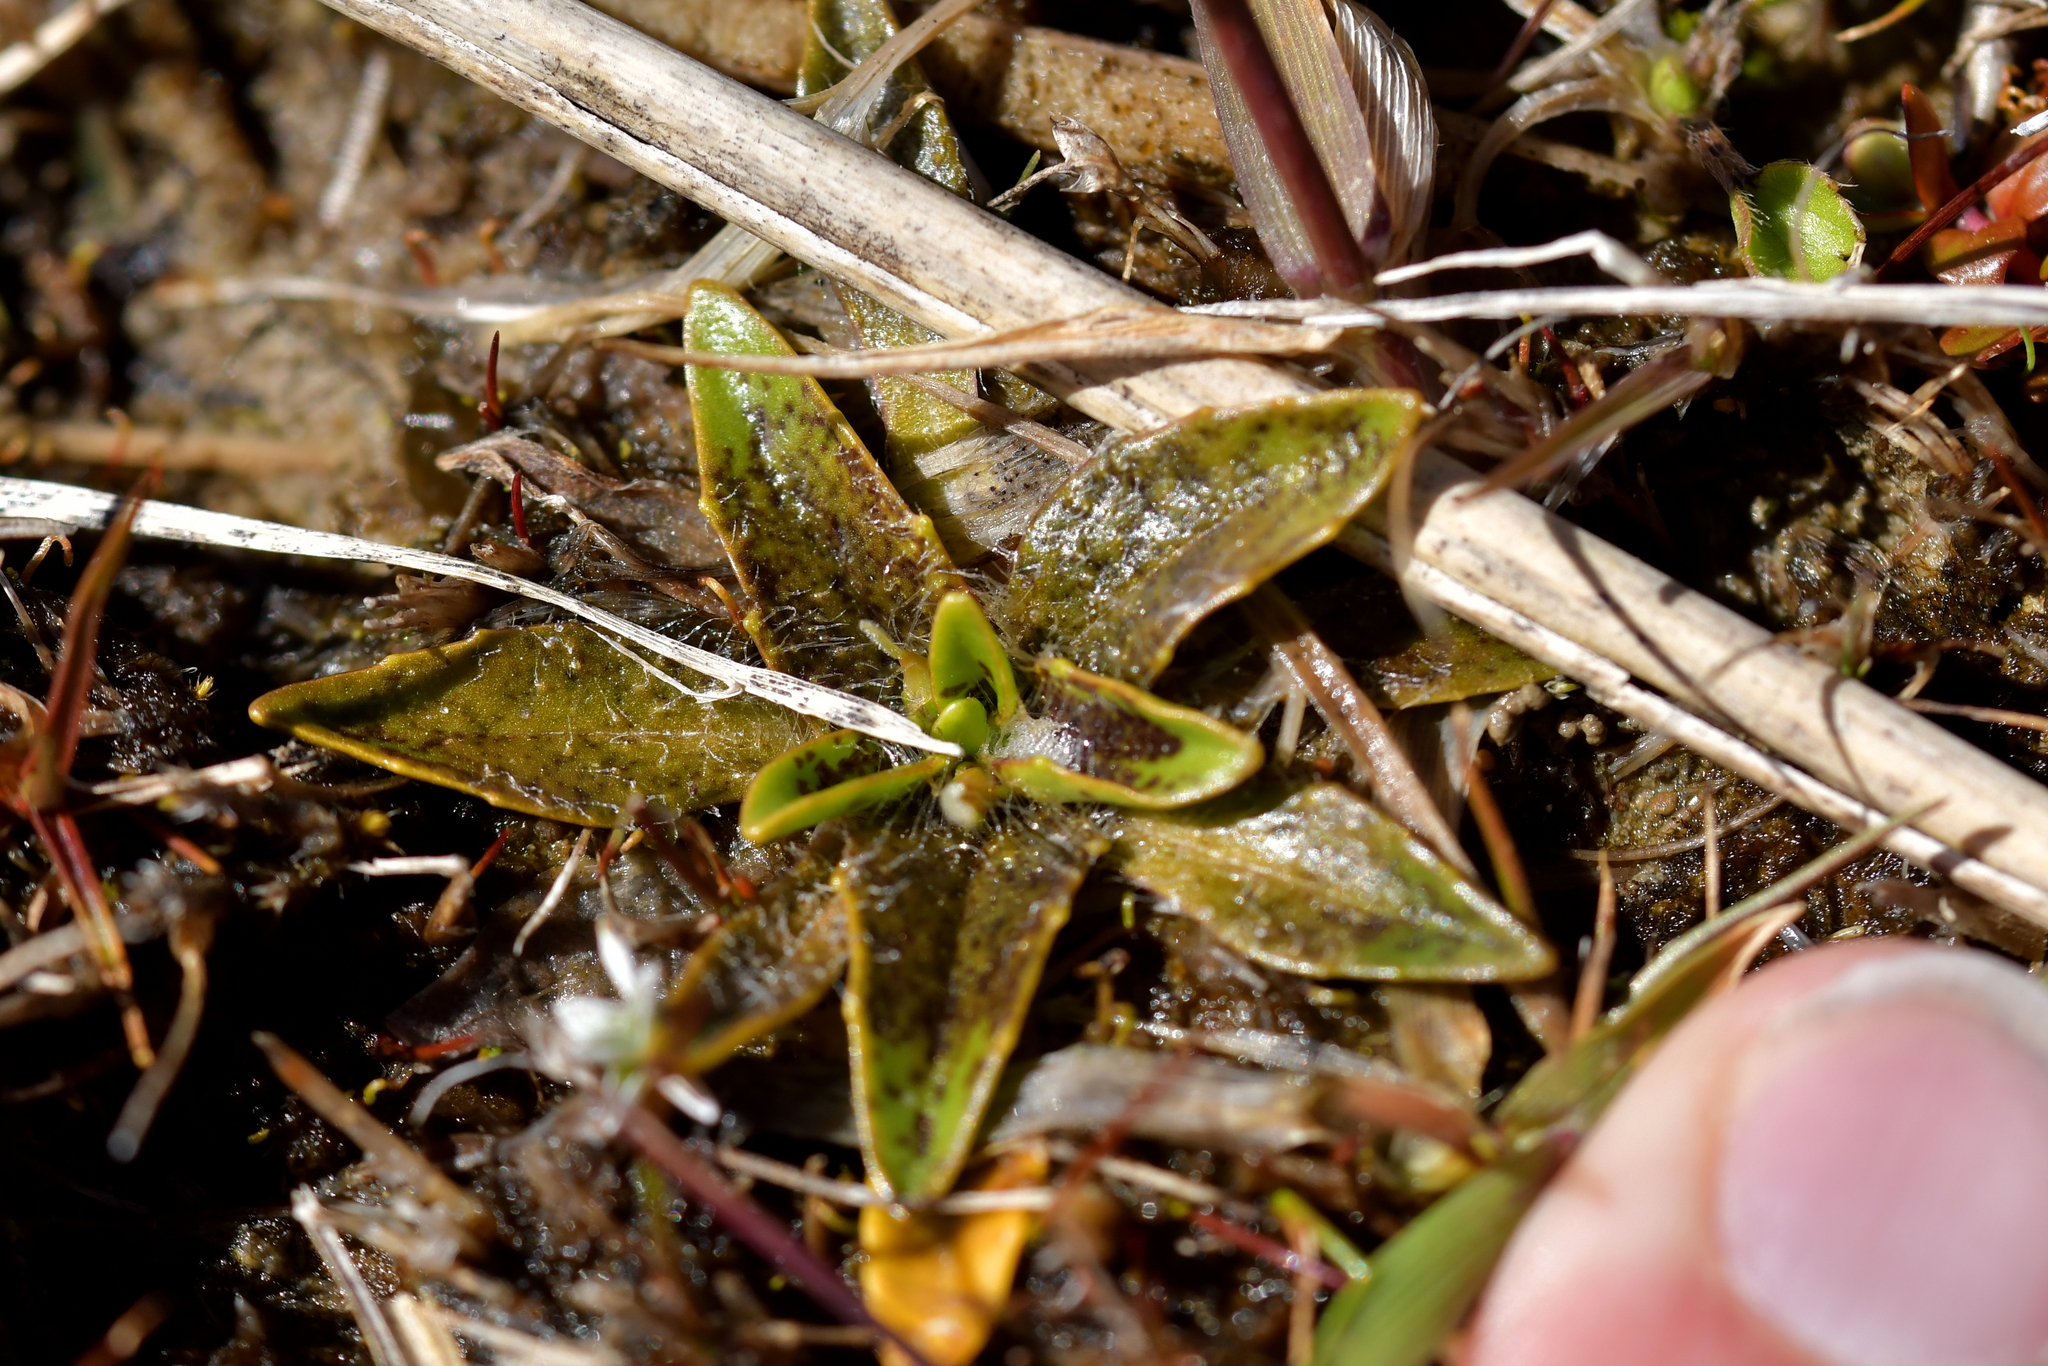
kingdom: Plantae
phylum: Tracheophyta
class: Magnoliopsida
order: Lamiales
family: Plantaginaceae
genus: Plantago
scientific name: Plantago triandra
